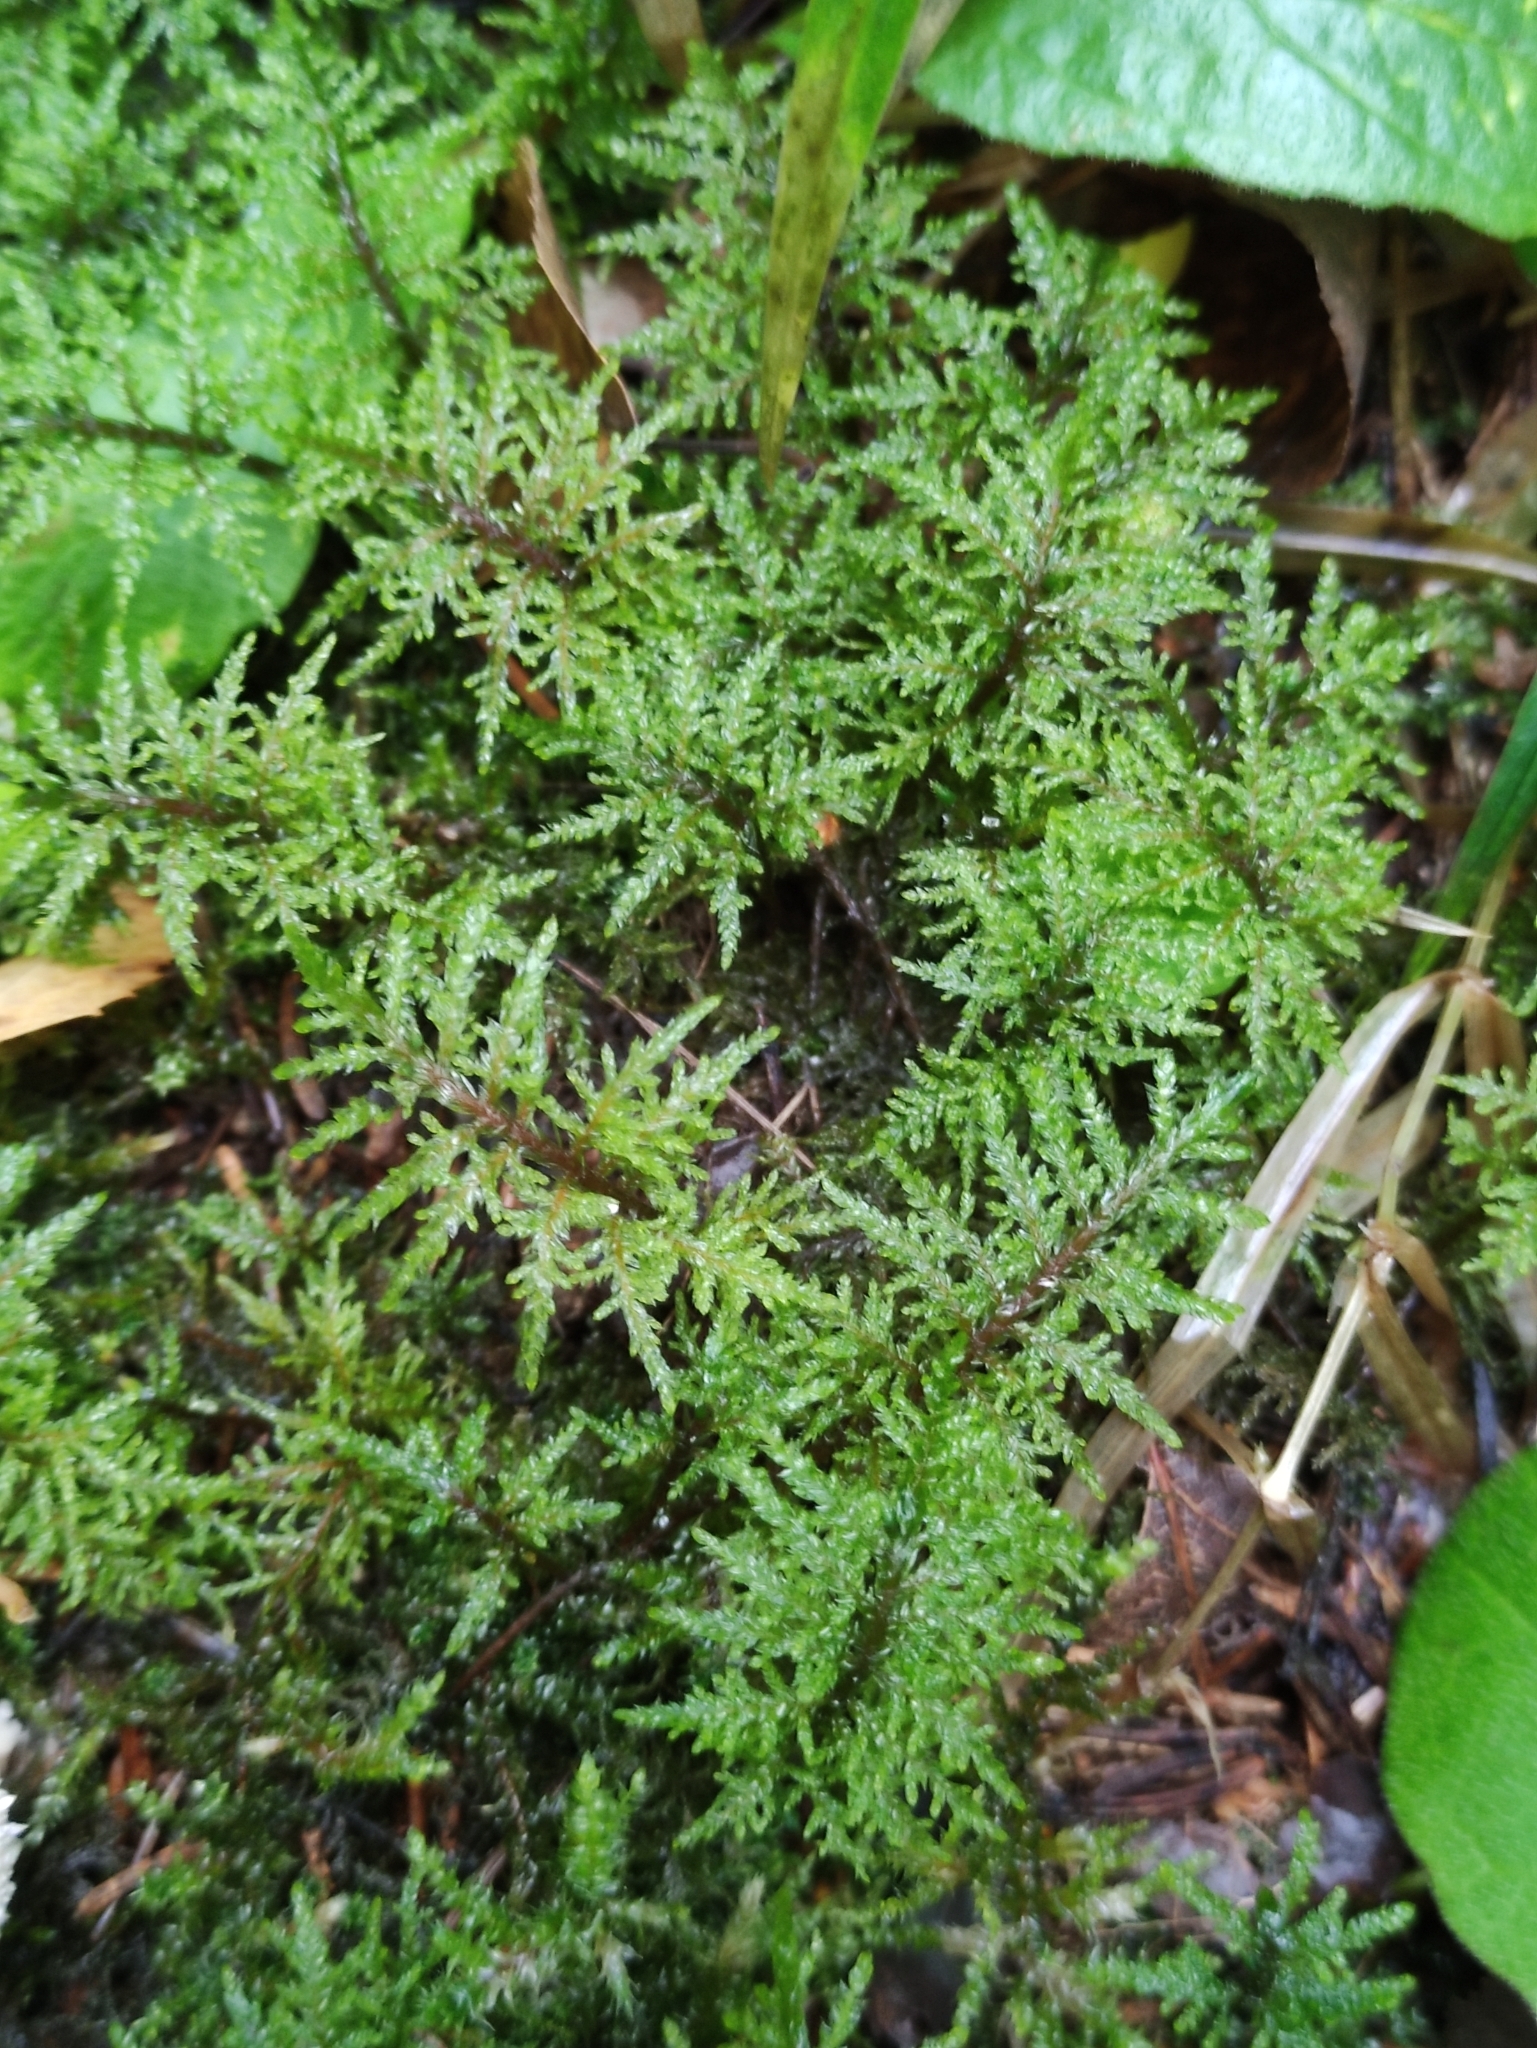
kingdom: Plantae
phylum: Bryophyta
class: Bryopsida
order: Hypnales
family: Hylocomiaceae
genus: Hylocomium
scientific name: Hylocomium splendens
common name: Stairstep moss
